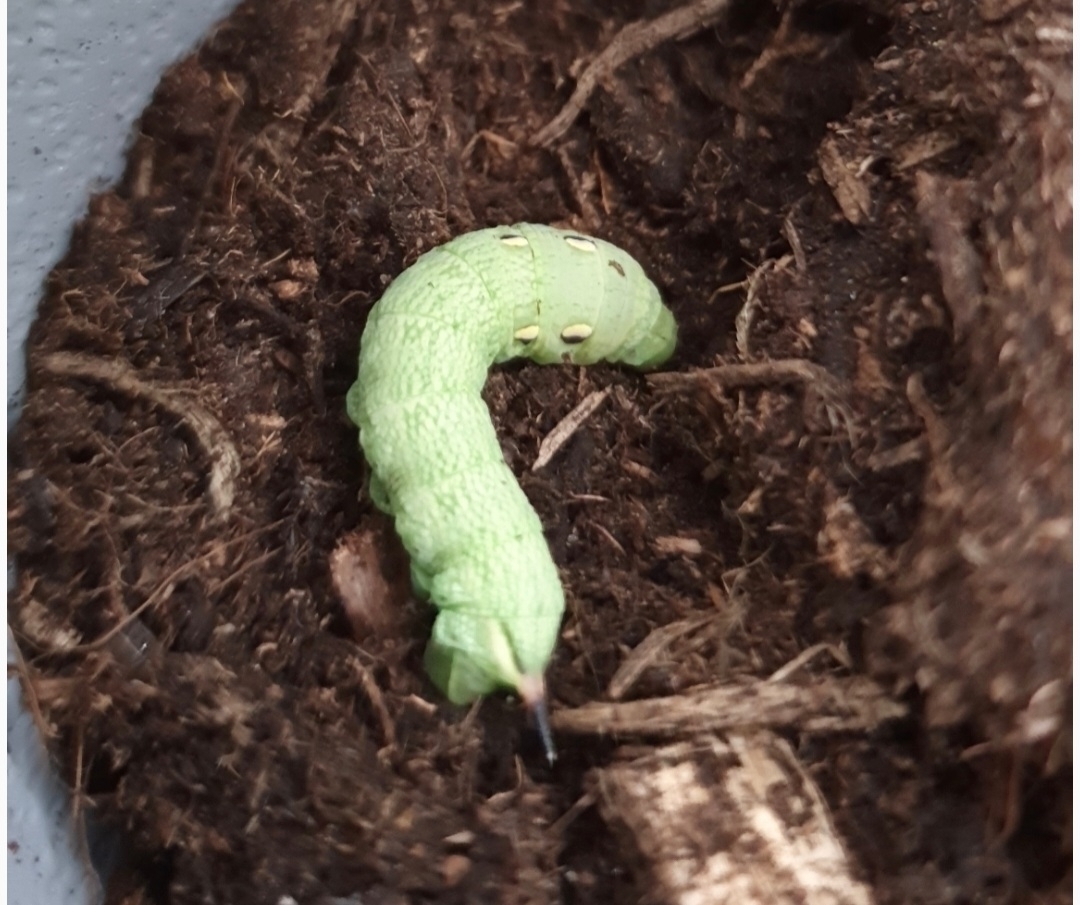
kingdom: Animalia
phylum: Arthropoda
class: Insecta
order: Lepidoptera
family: Sphingidae
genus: Deilephila
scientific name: Deilephila elpenor
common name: Elephant hawk-moth
